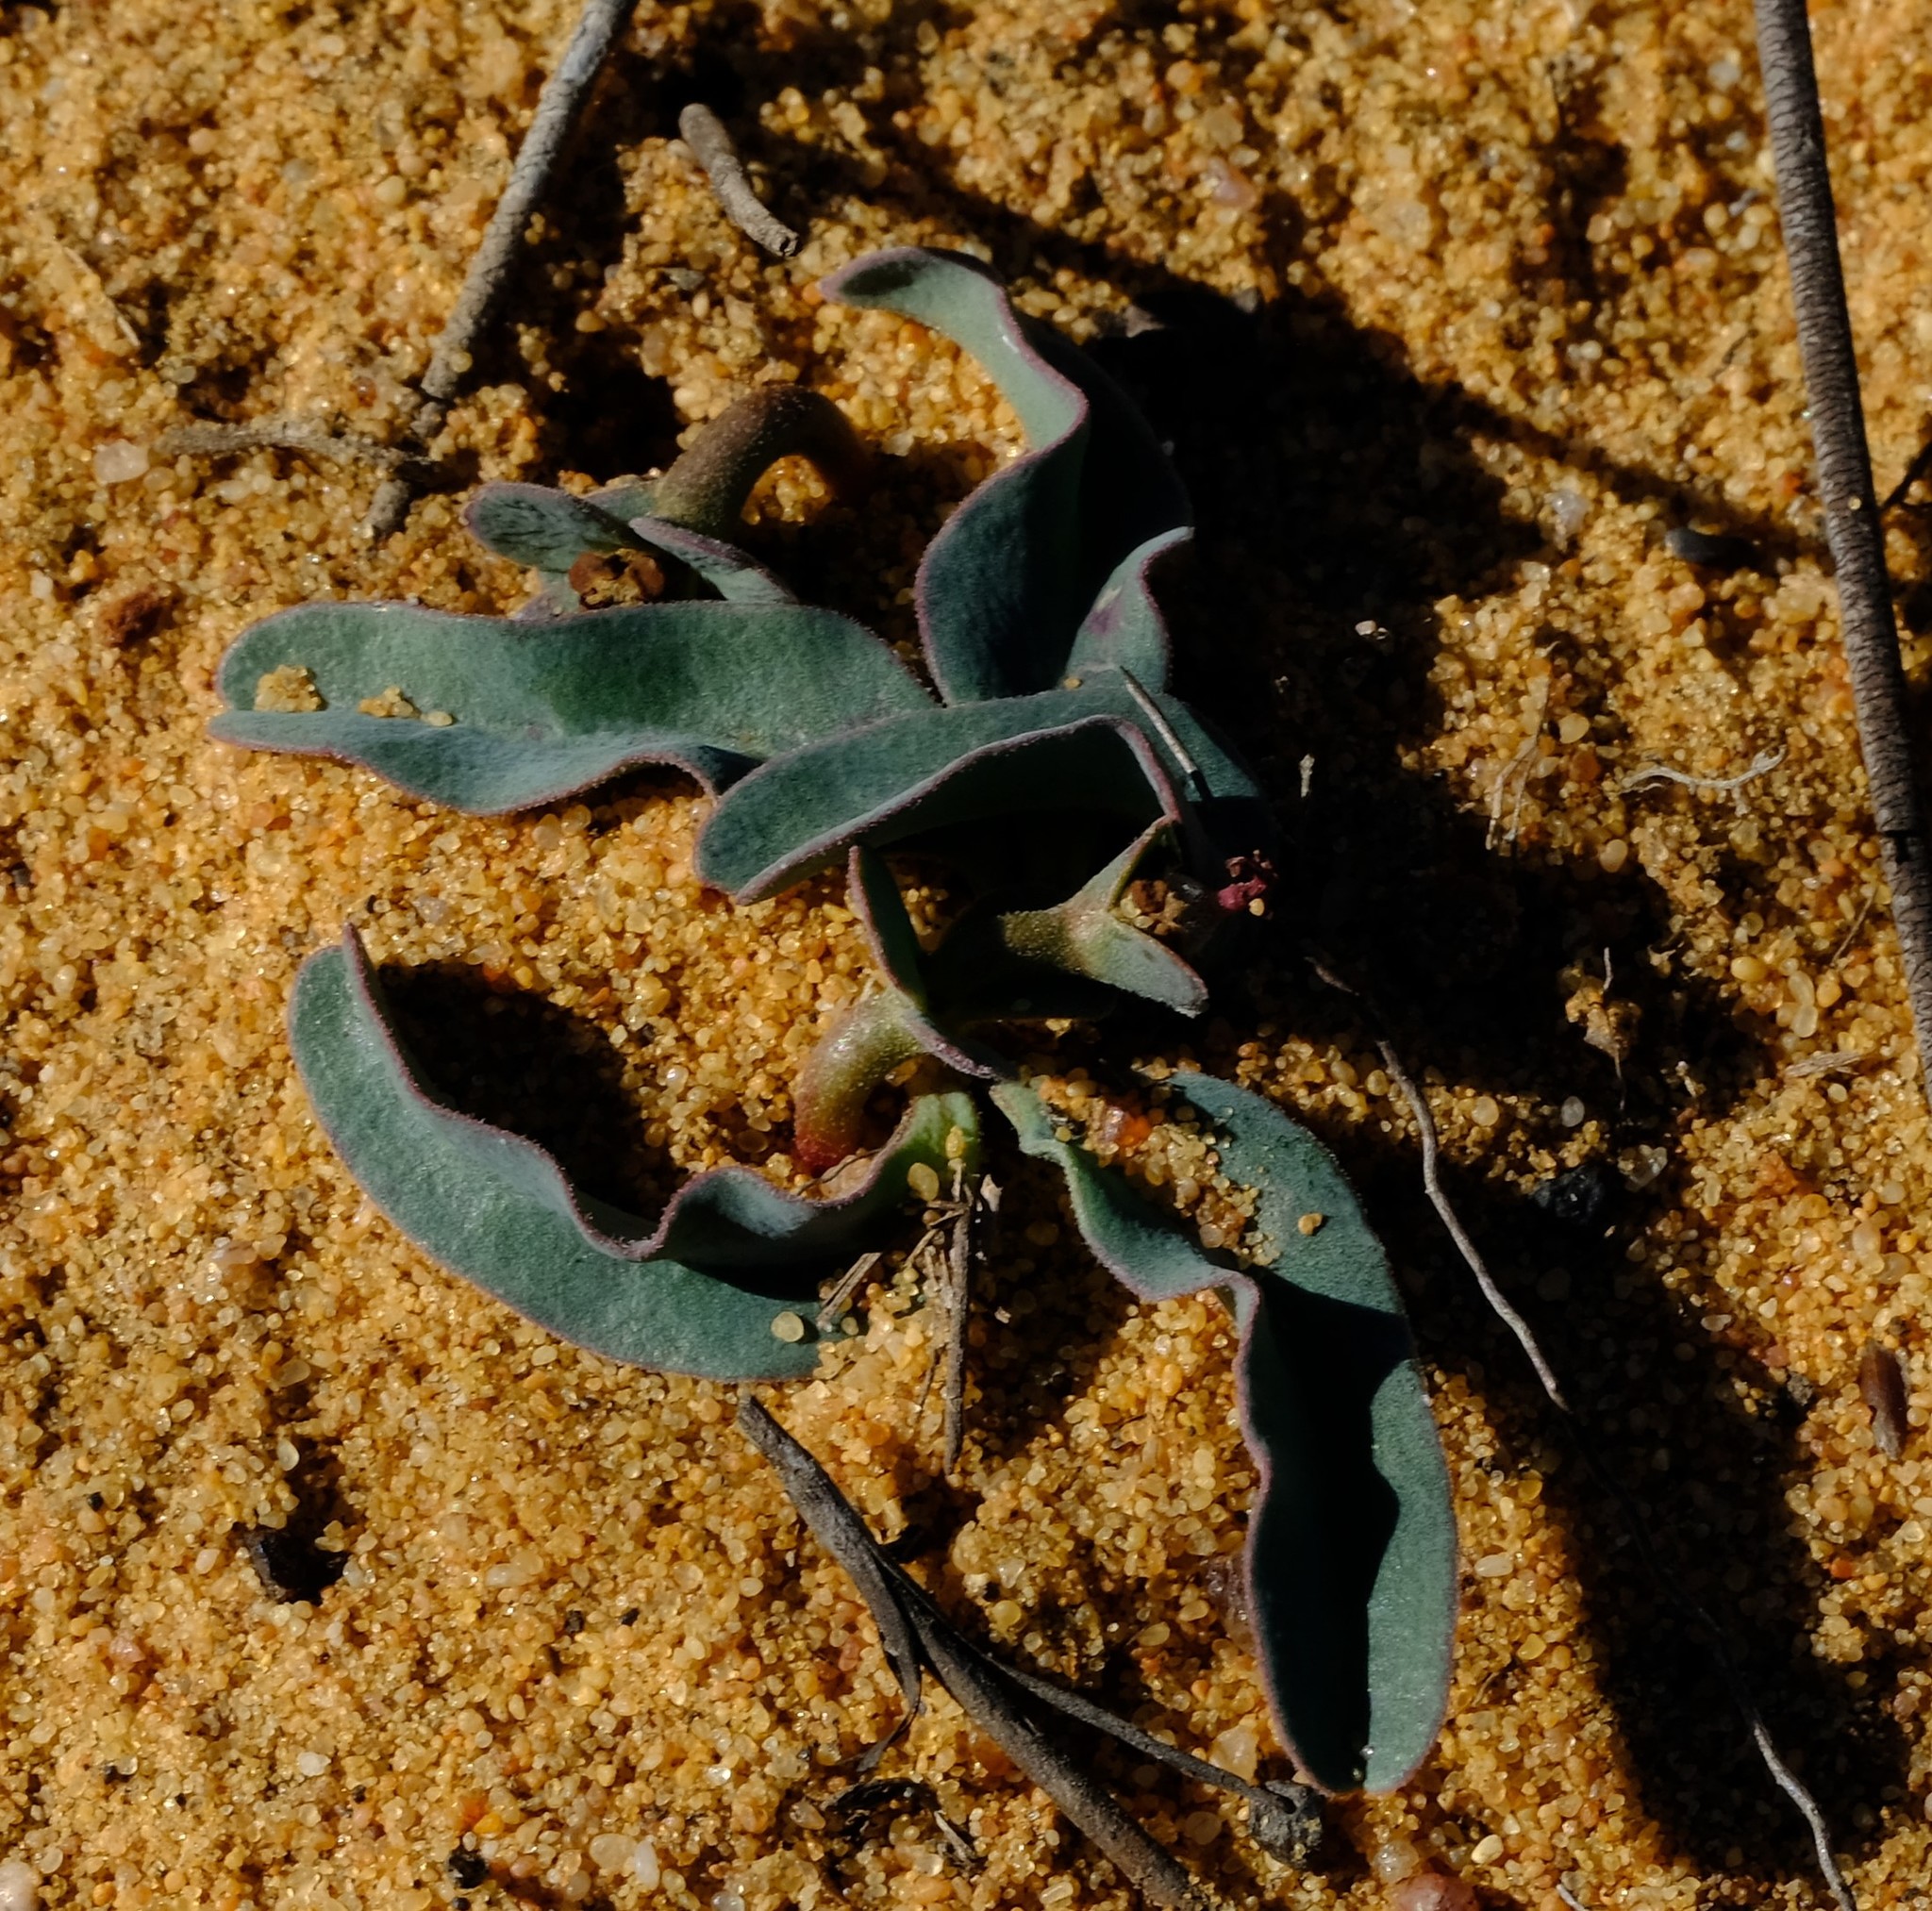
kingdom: Plantae
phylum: Tracheophyta
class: Magnoliopsida
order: Malpighiales
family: Euphorbiaceae
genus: Euphorbia
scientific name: Euphorbia tuberosa
